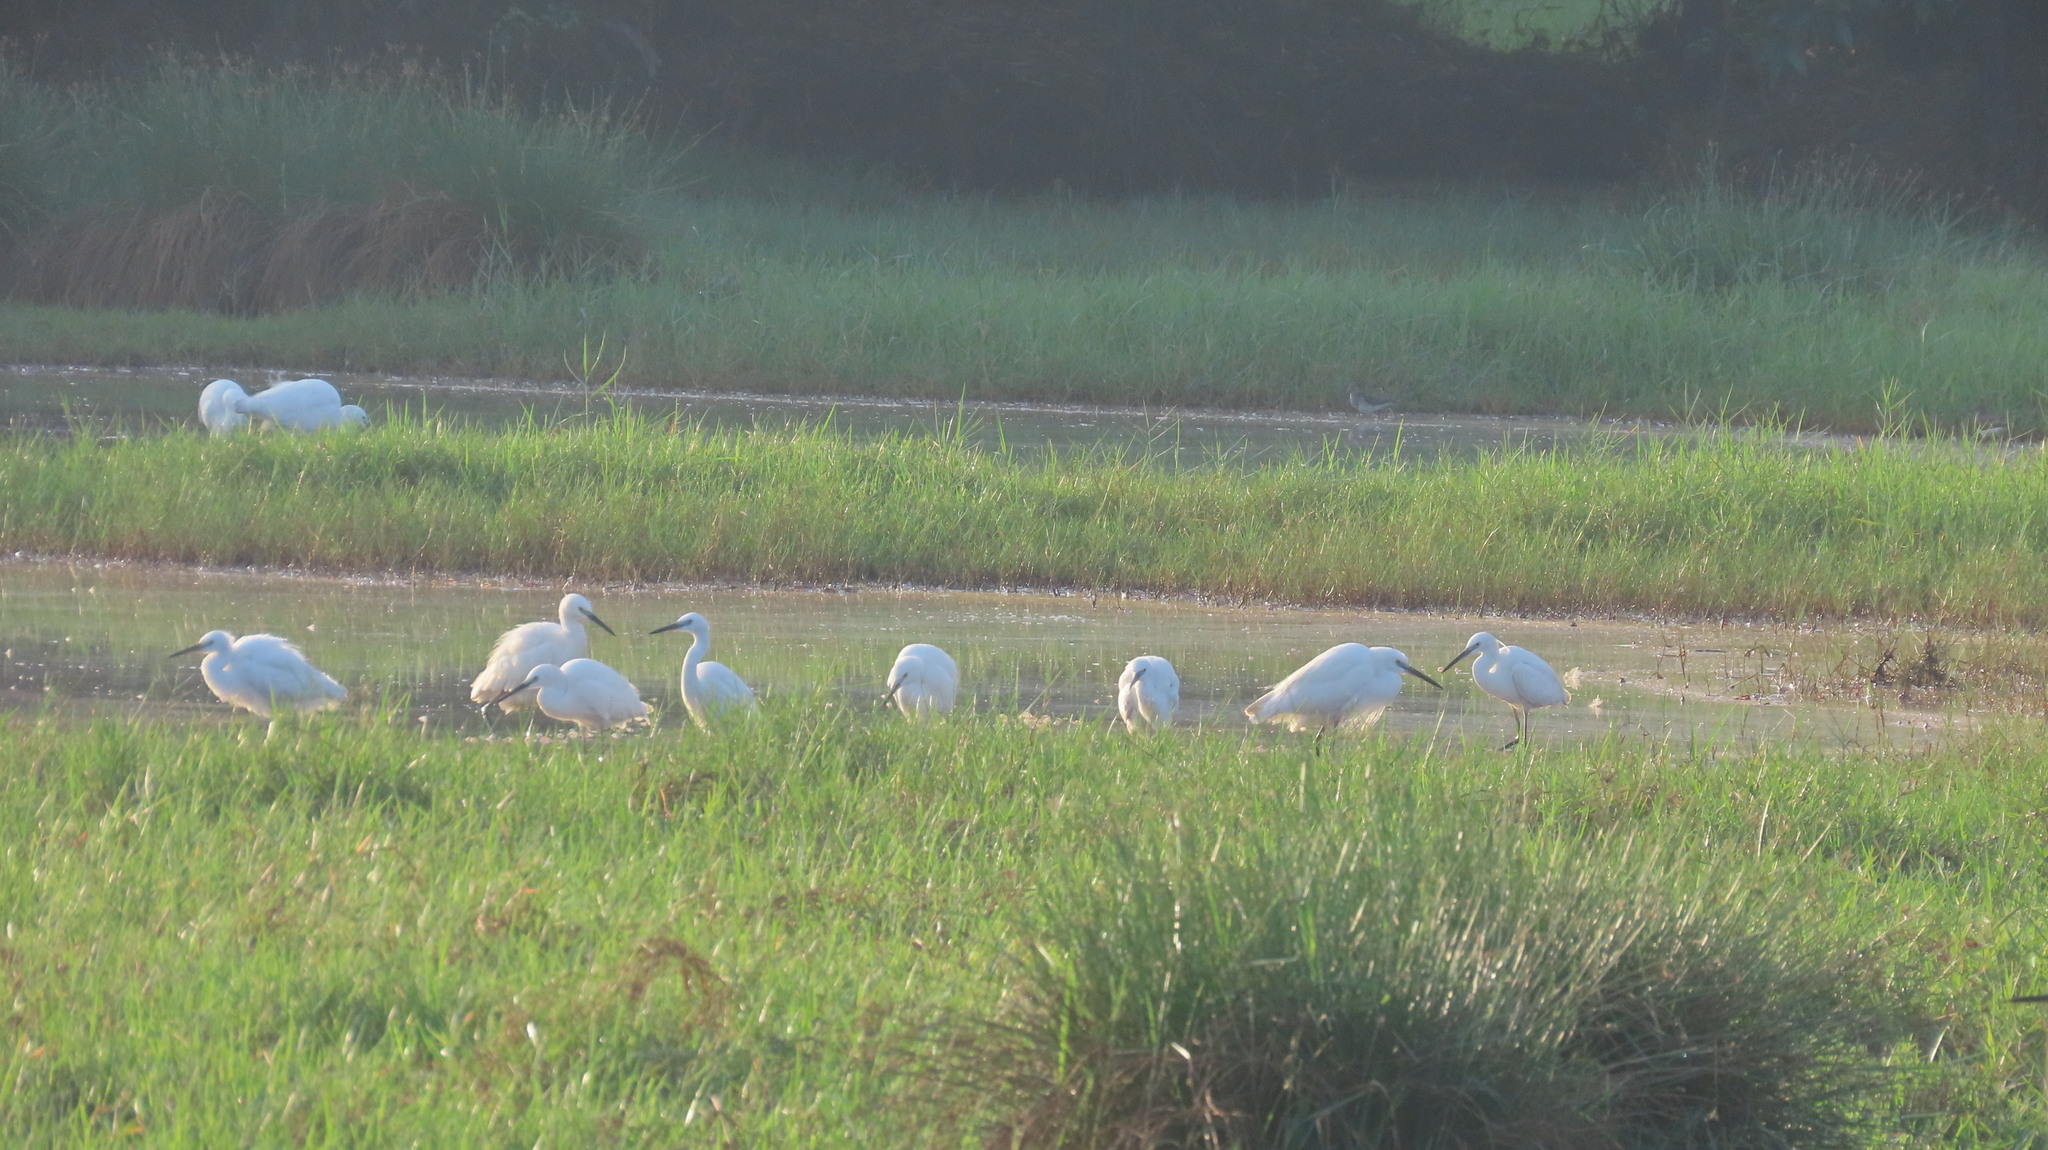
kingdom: Animalia
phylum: Chordata
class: Aves
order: Pelecaniformes
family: Ardeidae
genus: Egretta
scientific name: Egretta garzetta
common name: Little egret
